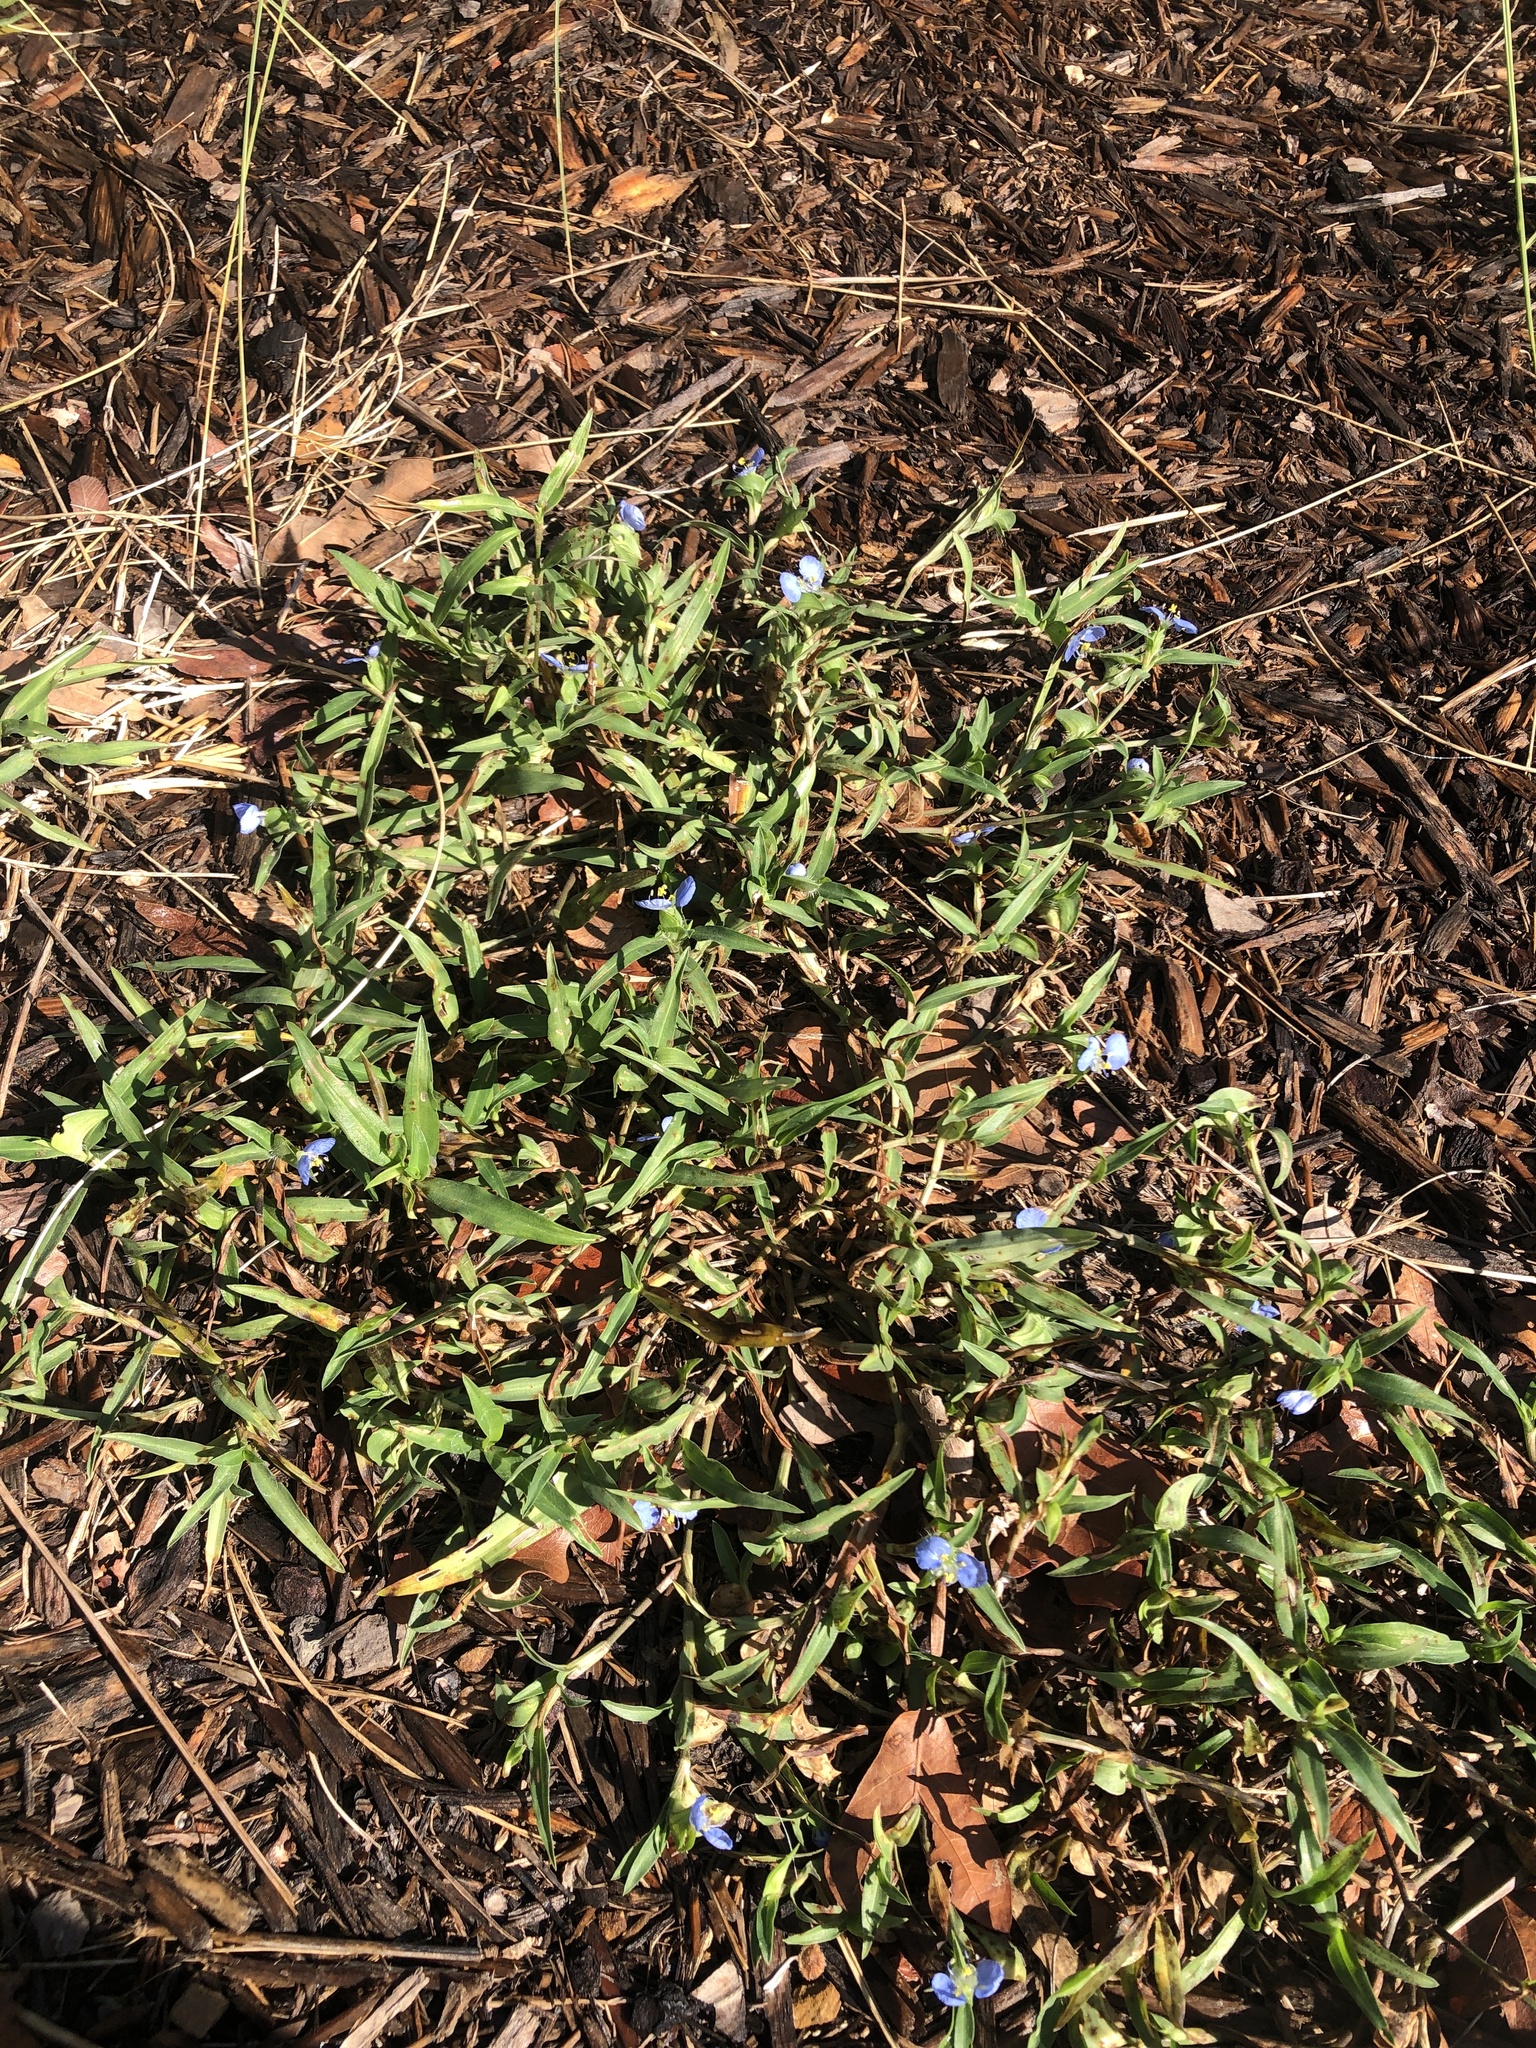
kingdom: Plantae
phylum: Tracheophyta
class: Liliopsida
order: Commelinales
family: Commelinaceae
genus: Commelina
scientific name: Commelina erecta
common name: Blousel blommetjie
